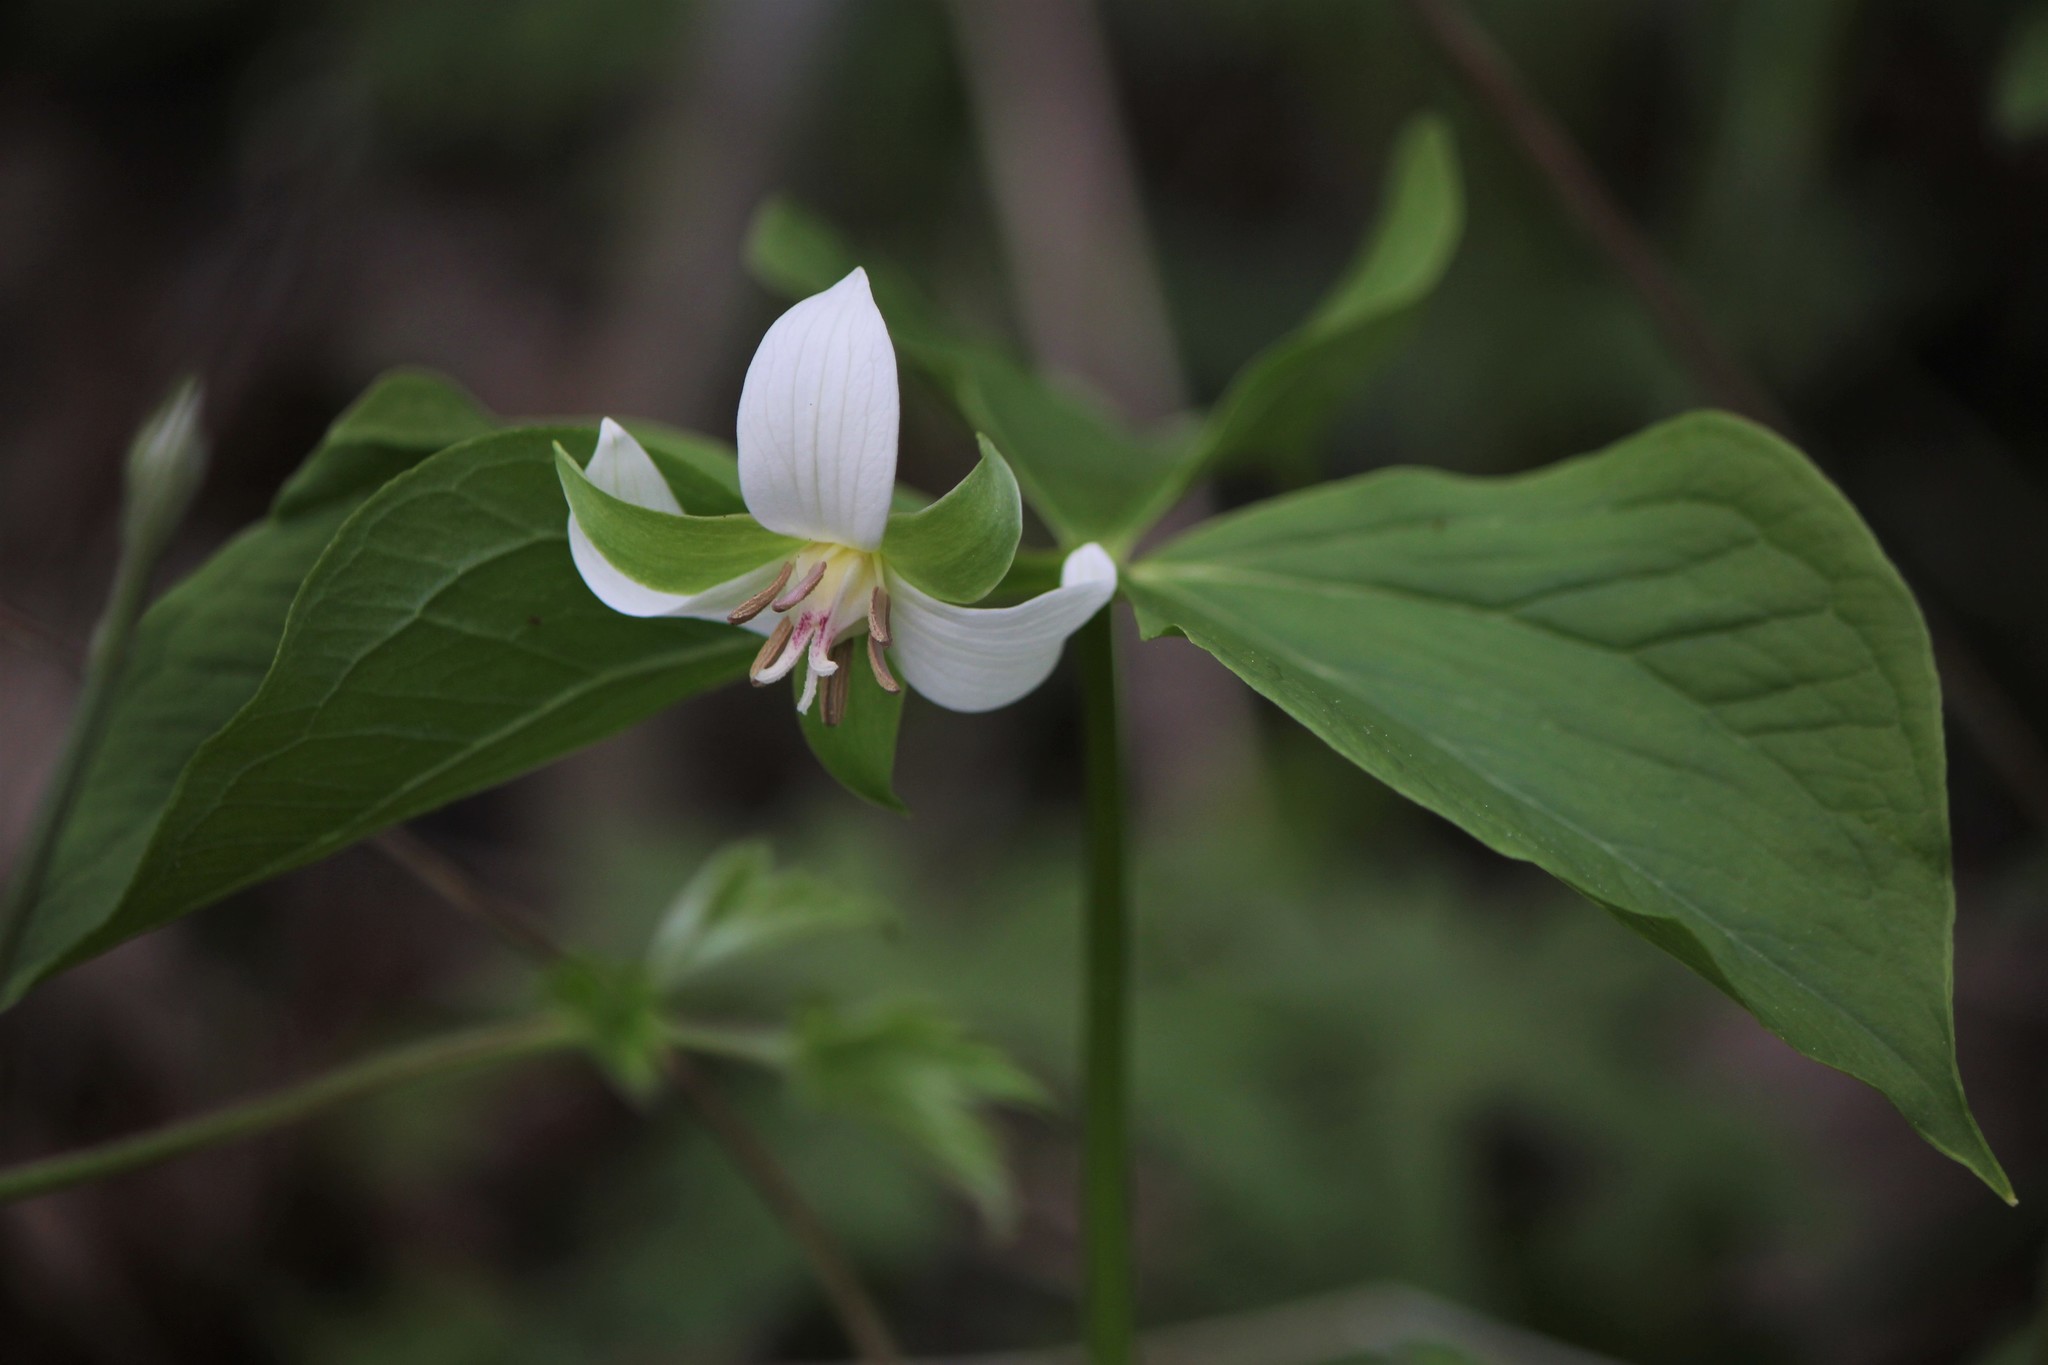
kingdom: Plantae
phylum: Tracheophyta
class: Liliopsida
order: Liliales
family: Melanthiaceae
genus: Trillium
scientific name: Trillium flexipes
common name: Drooping trillium
